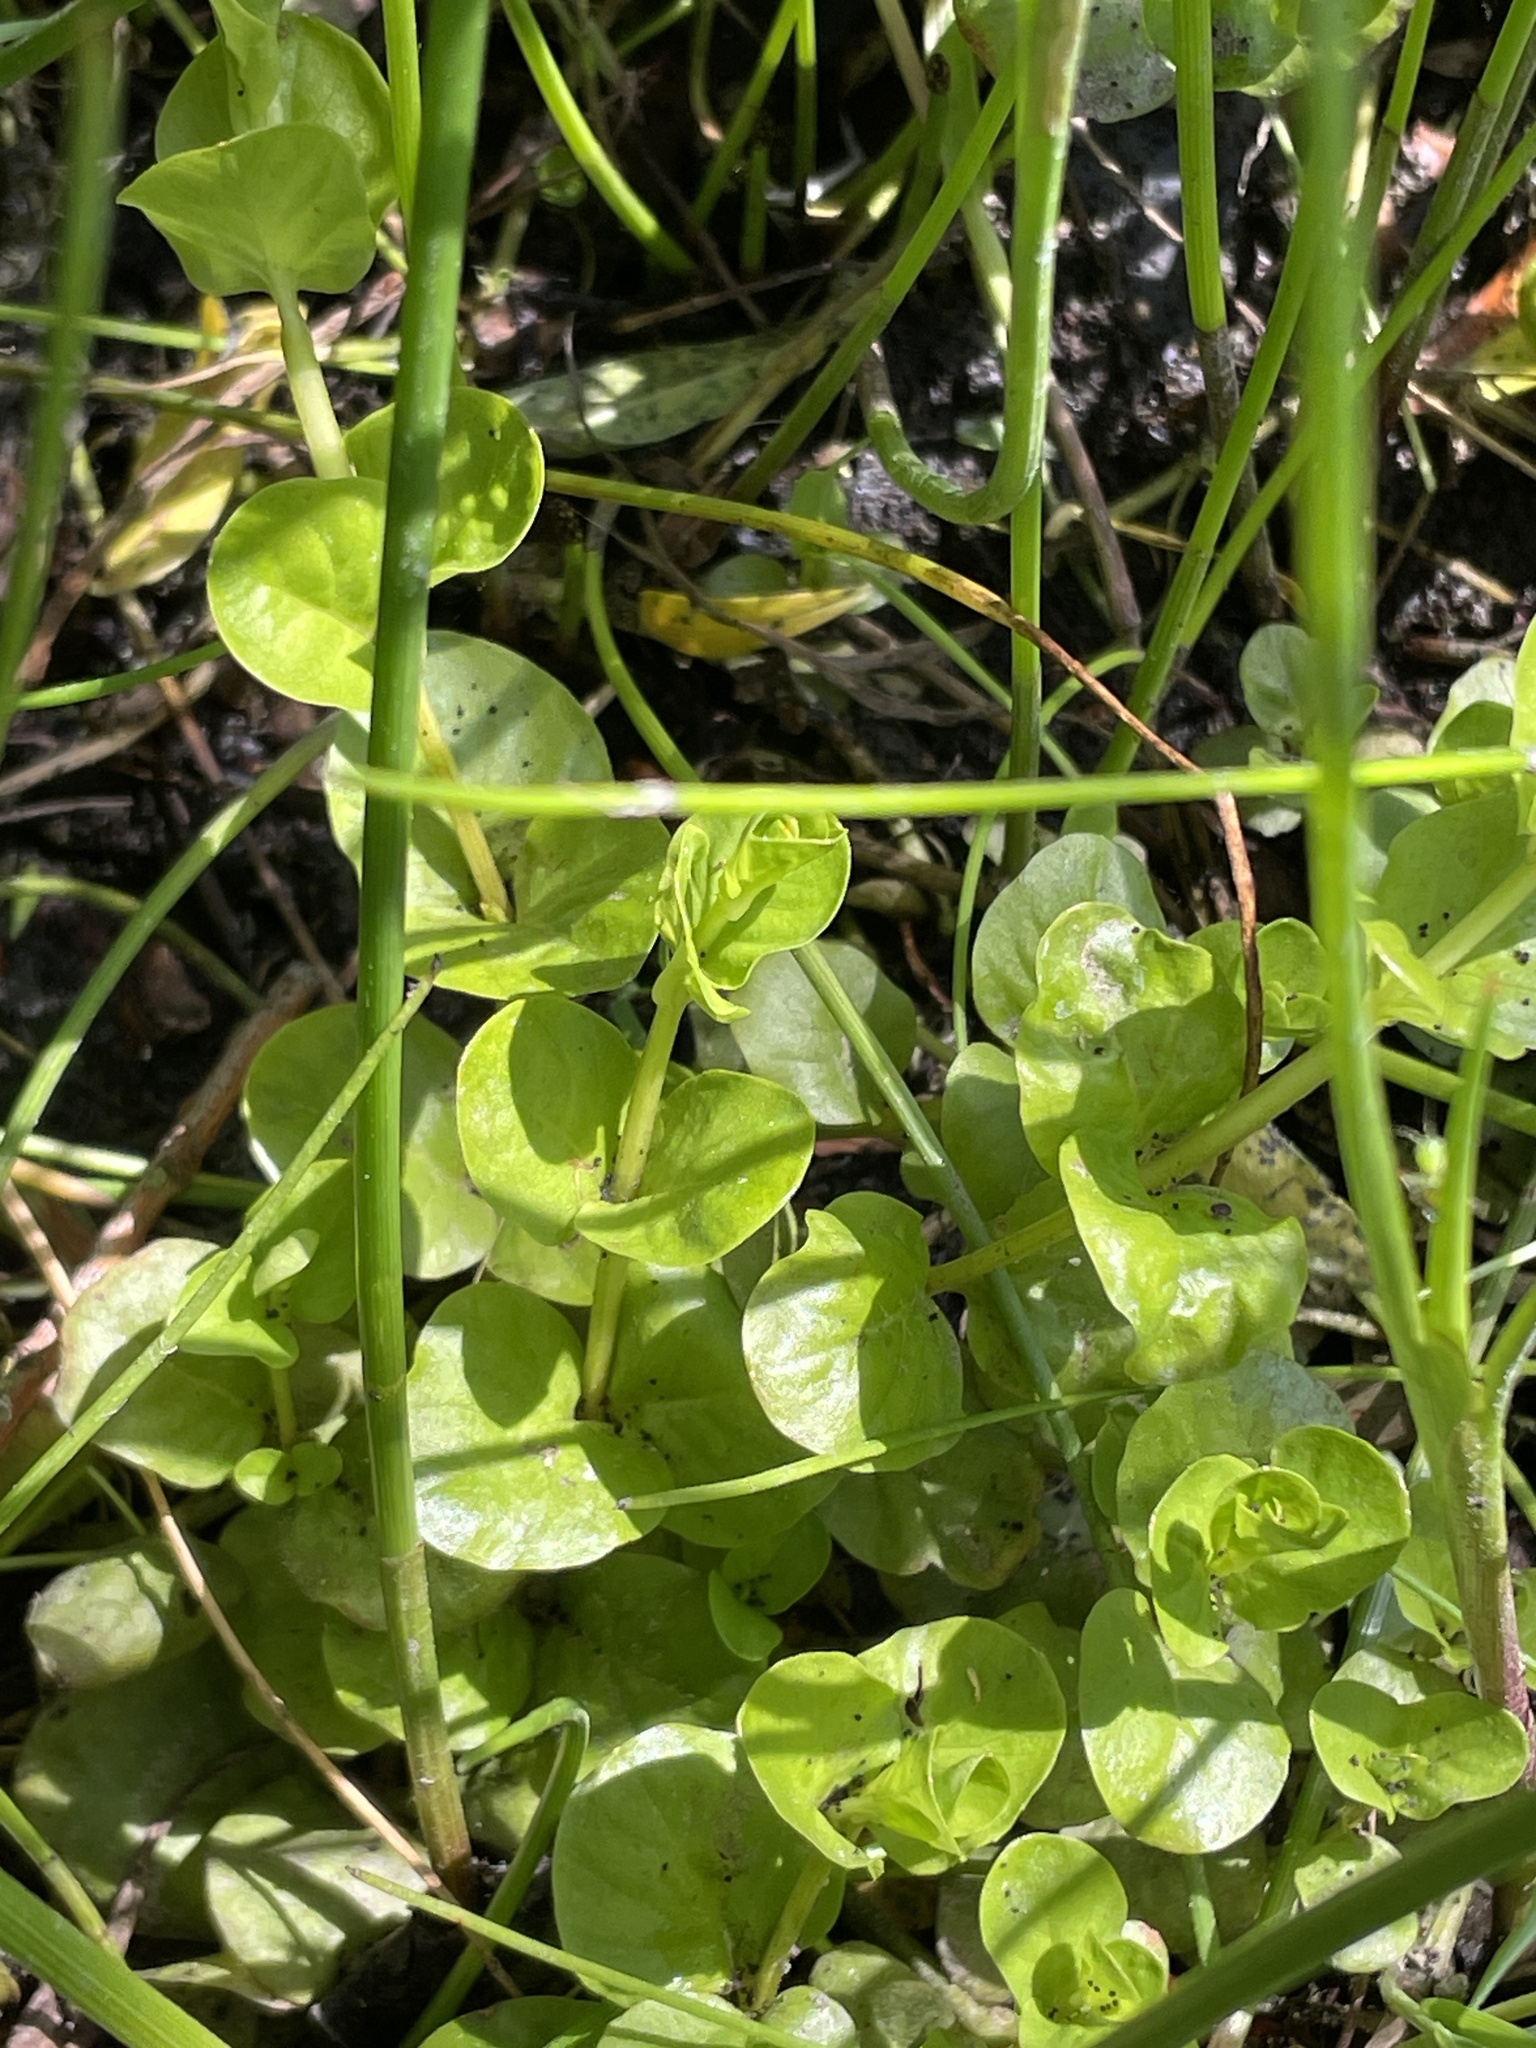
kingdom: Plantae
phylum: Tracheophyta
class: Magnoliopsida
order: Ericales
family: Primulaceae
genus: Lysimachia
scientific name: Lysimachia nummularia
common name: Moneywort
